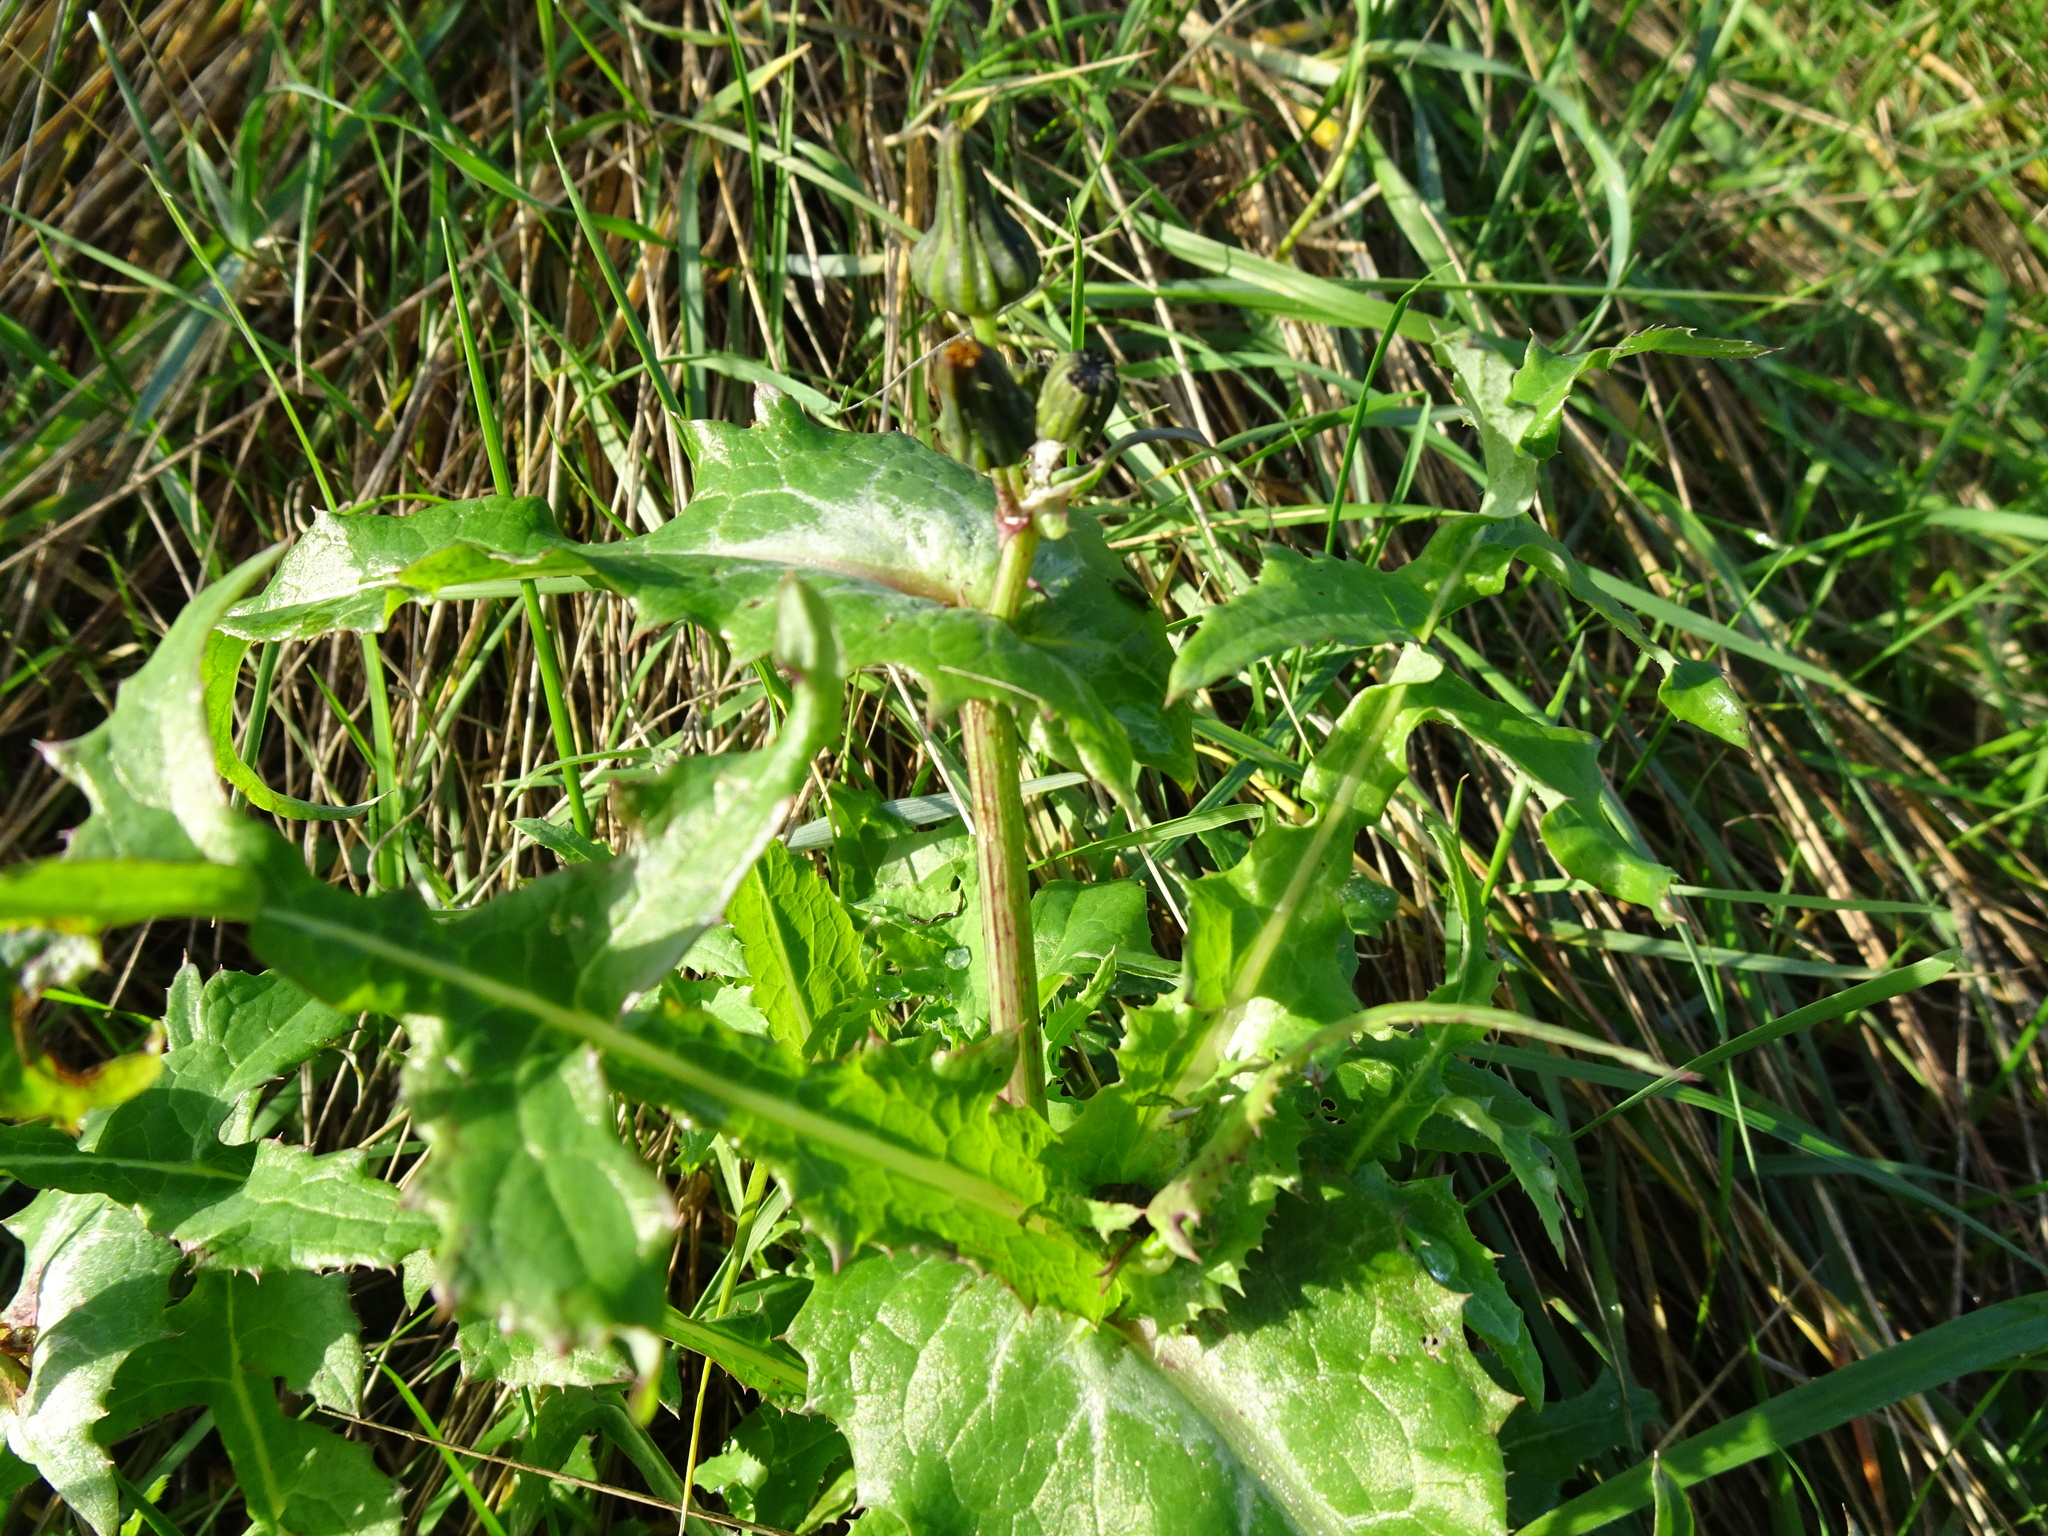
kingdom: Plantae
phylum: Tracheophyta
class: Magnoliopsida
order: Asterales
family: Asteraceae
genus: Sonchus
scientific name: Sonchus oleraceus
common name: Common sowthistle
